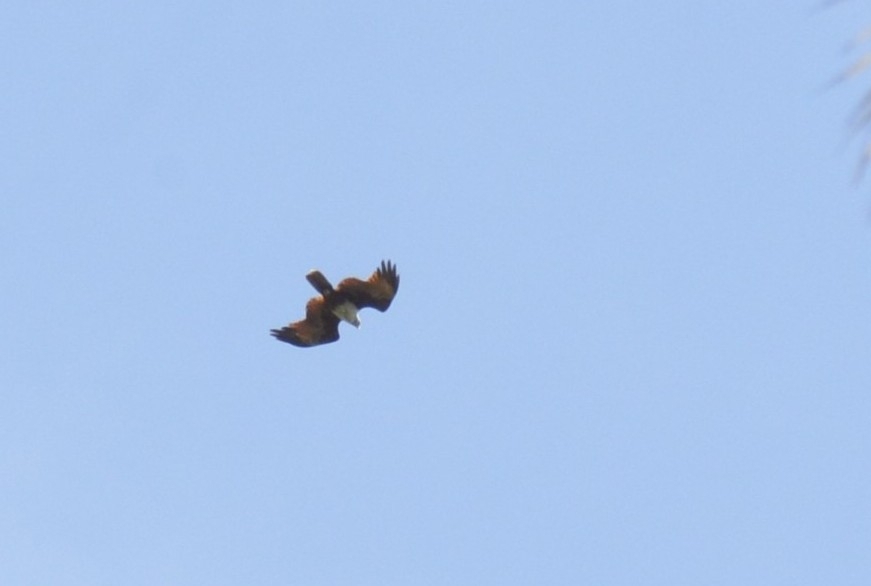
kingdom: Animalia
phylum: Chordata
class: Aves
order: Accipitriformes
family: Accipitridae
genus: Haliastur
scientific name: Haliastur indus
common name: Brahminy kite
